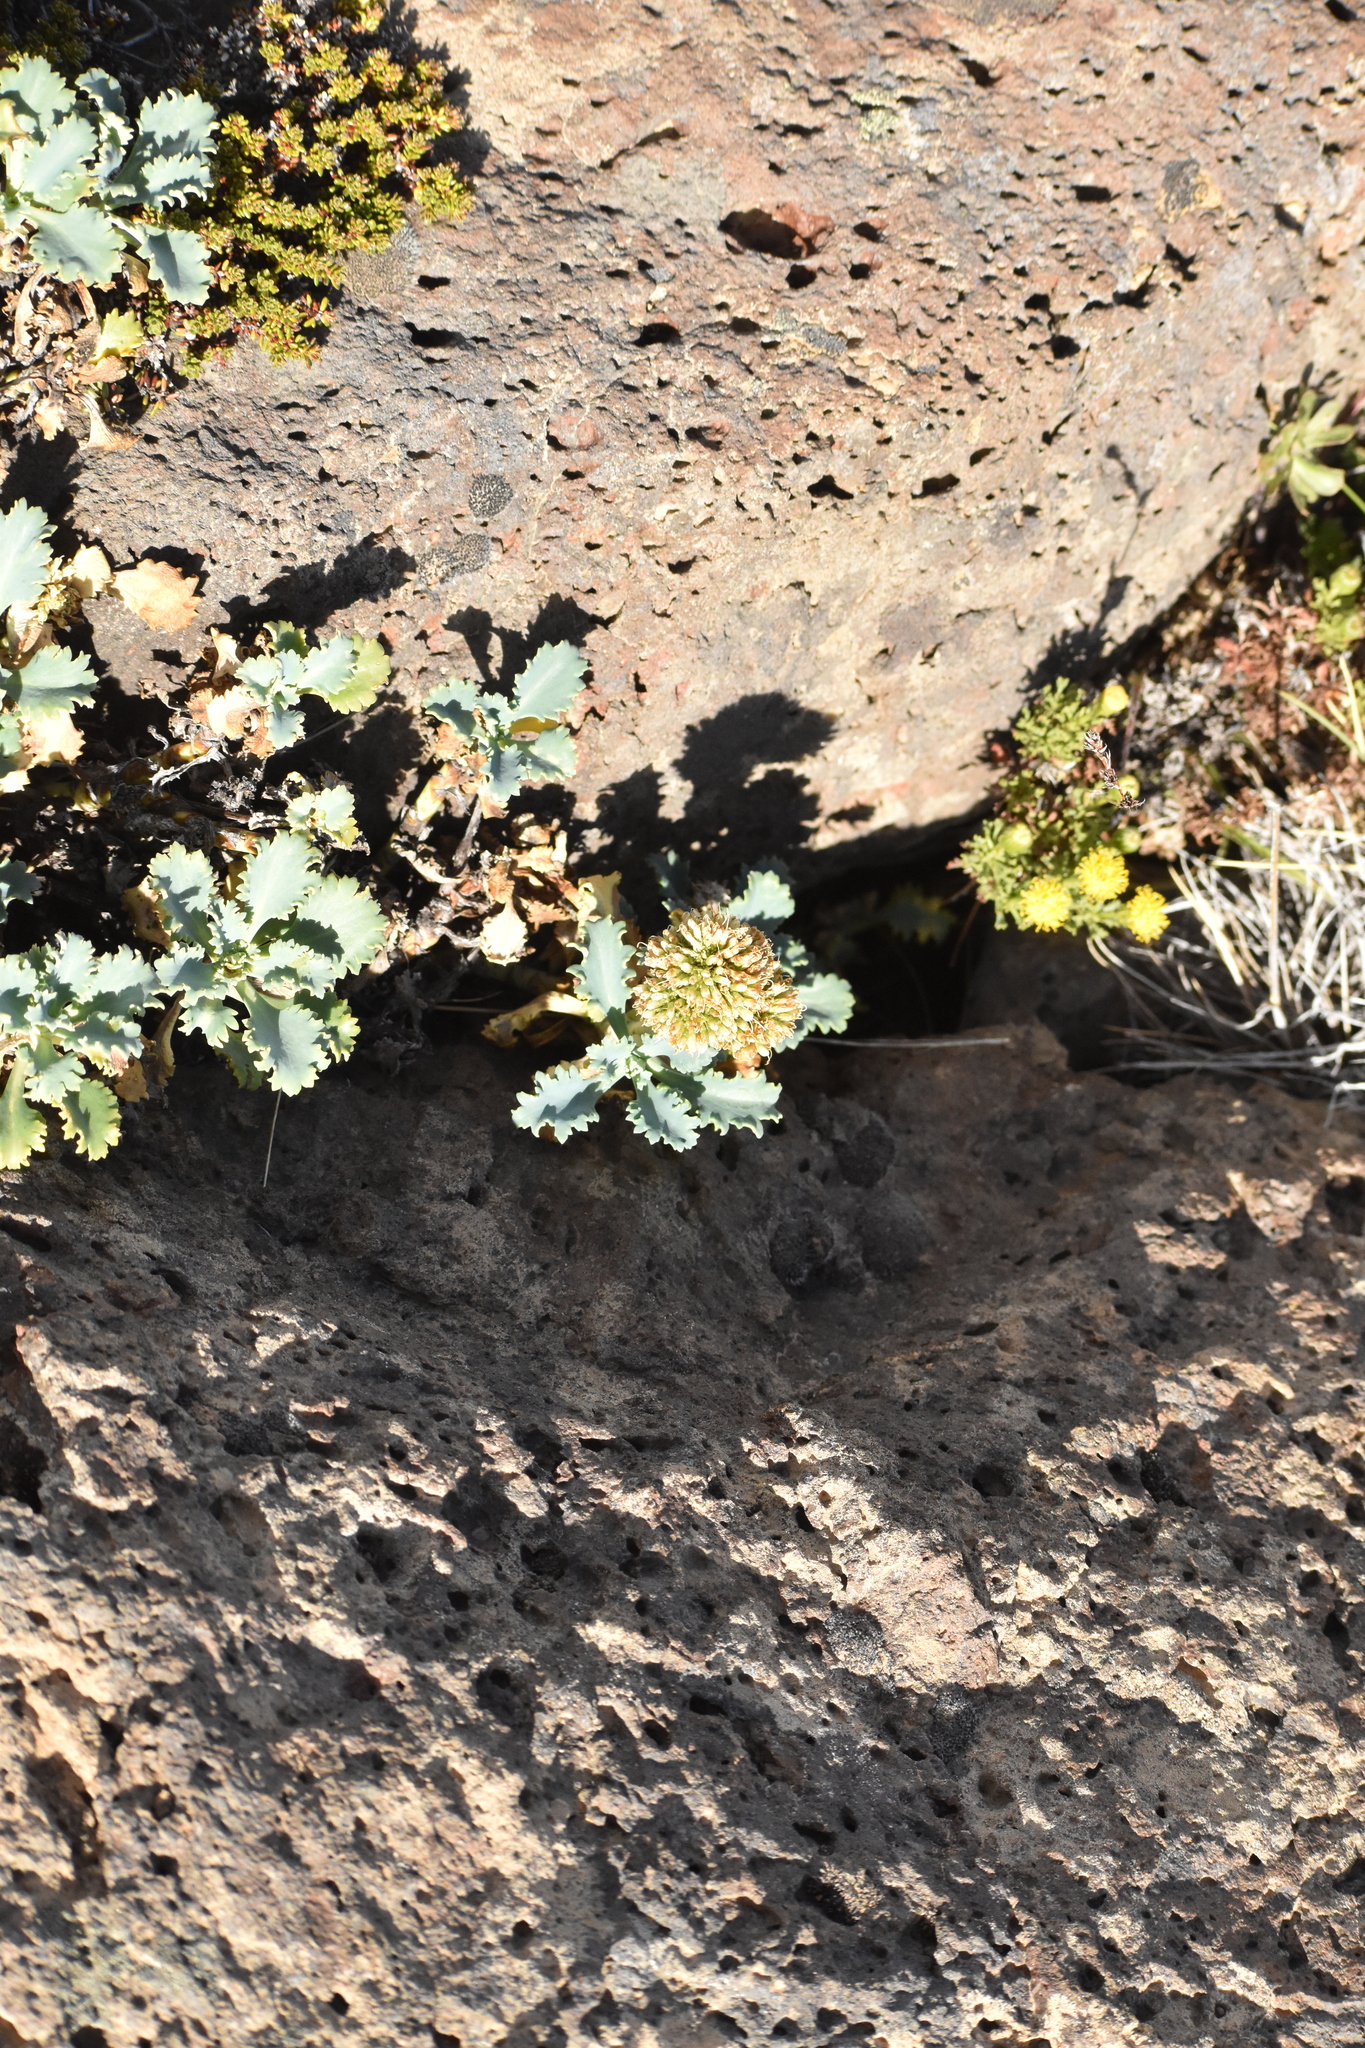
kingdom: Plantae
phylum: Tracheophyta
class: Magnoliopsida
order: Asterales
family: Calyceraceae
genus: Moschopsis
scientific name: Moschopsis ameghinoi
